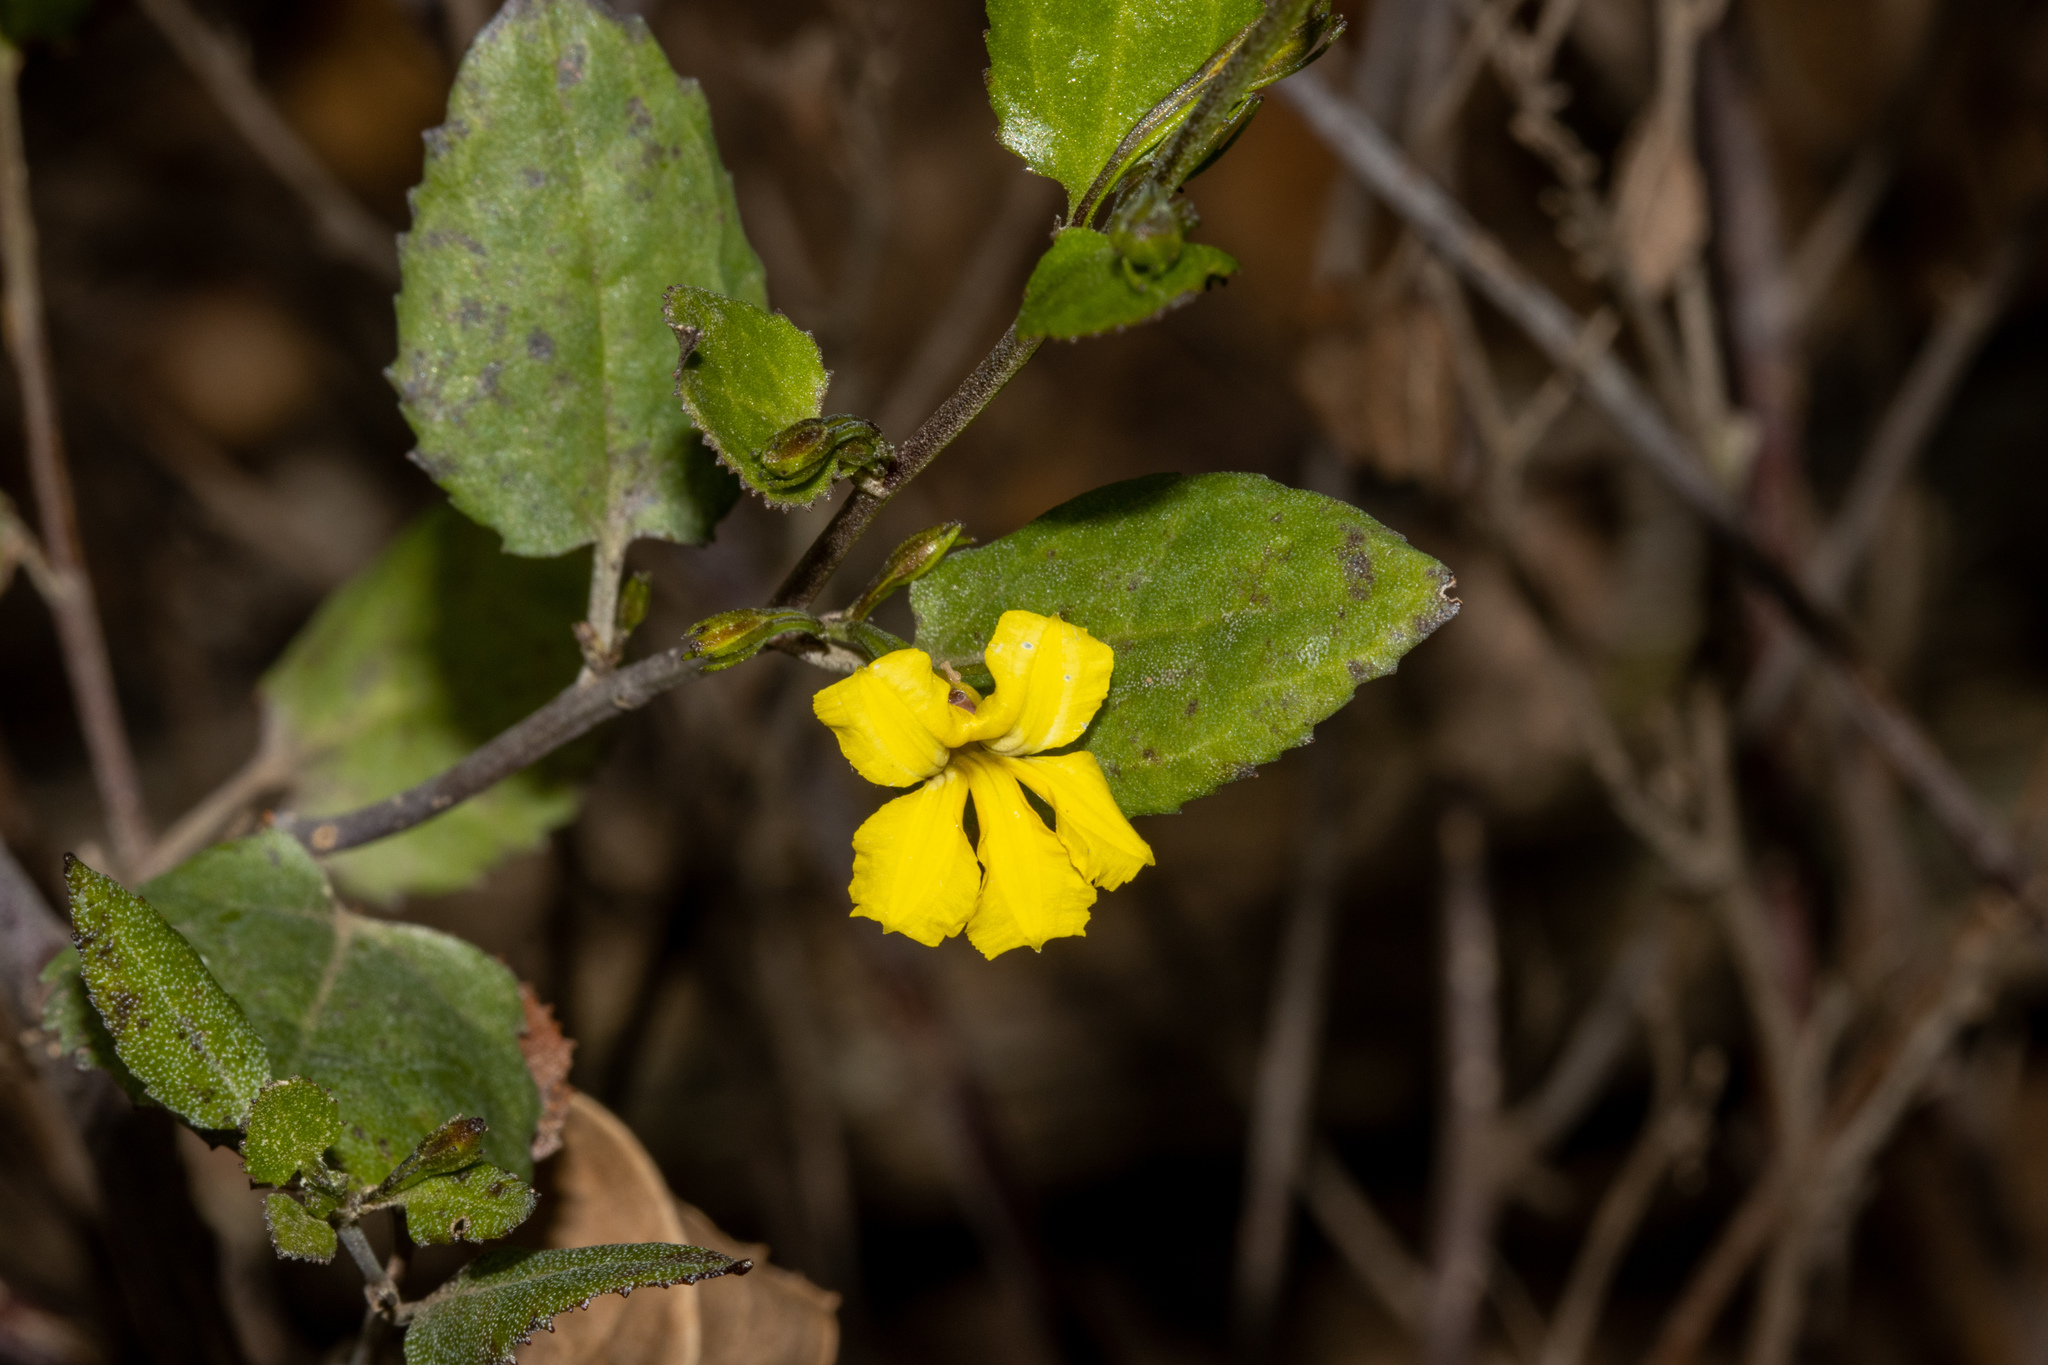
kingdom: Plantae
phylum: Tracheophyta
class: Magnoliopsida
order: Asterales
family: Goodeniaceae
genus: Goodenia
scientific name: Goodenia ovata
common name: Hop goodenia
